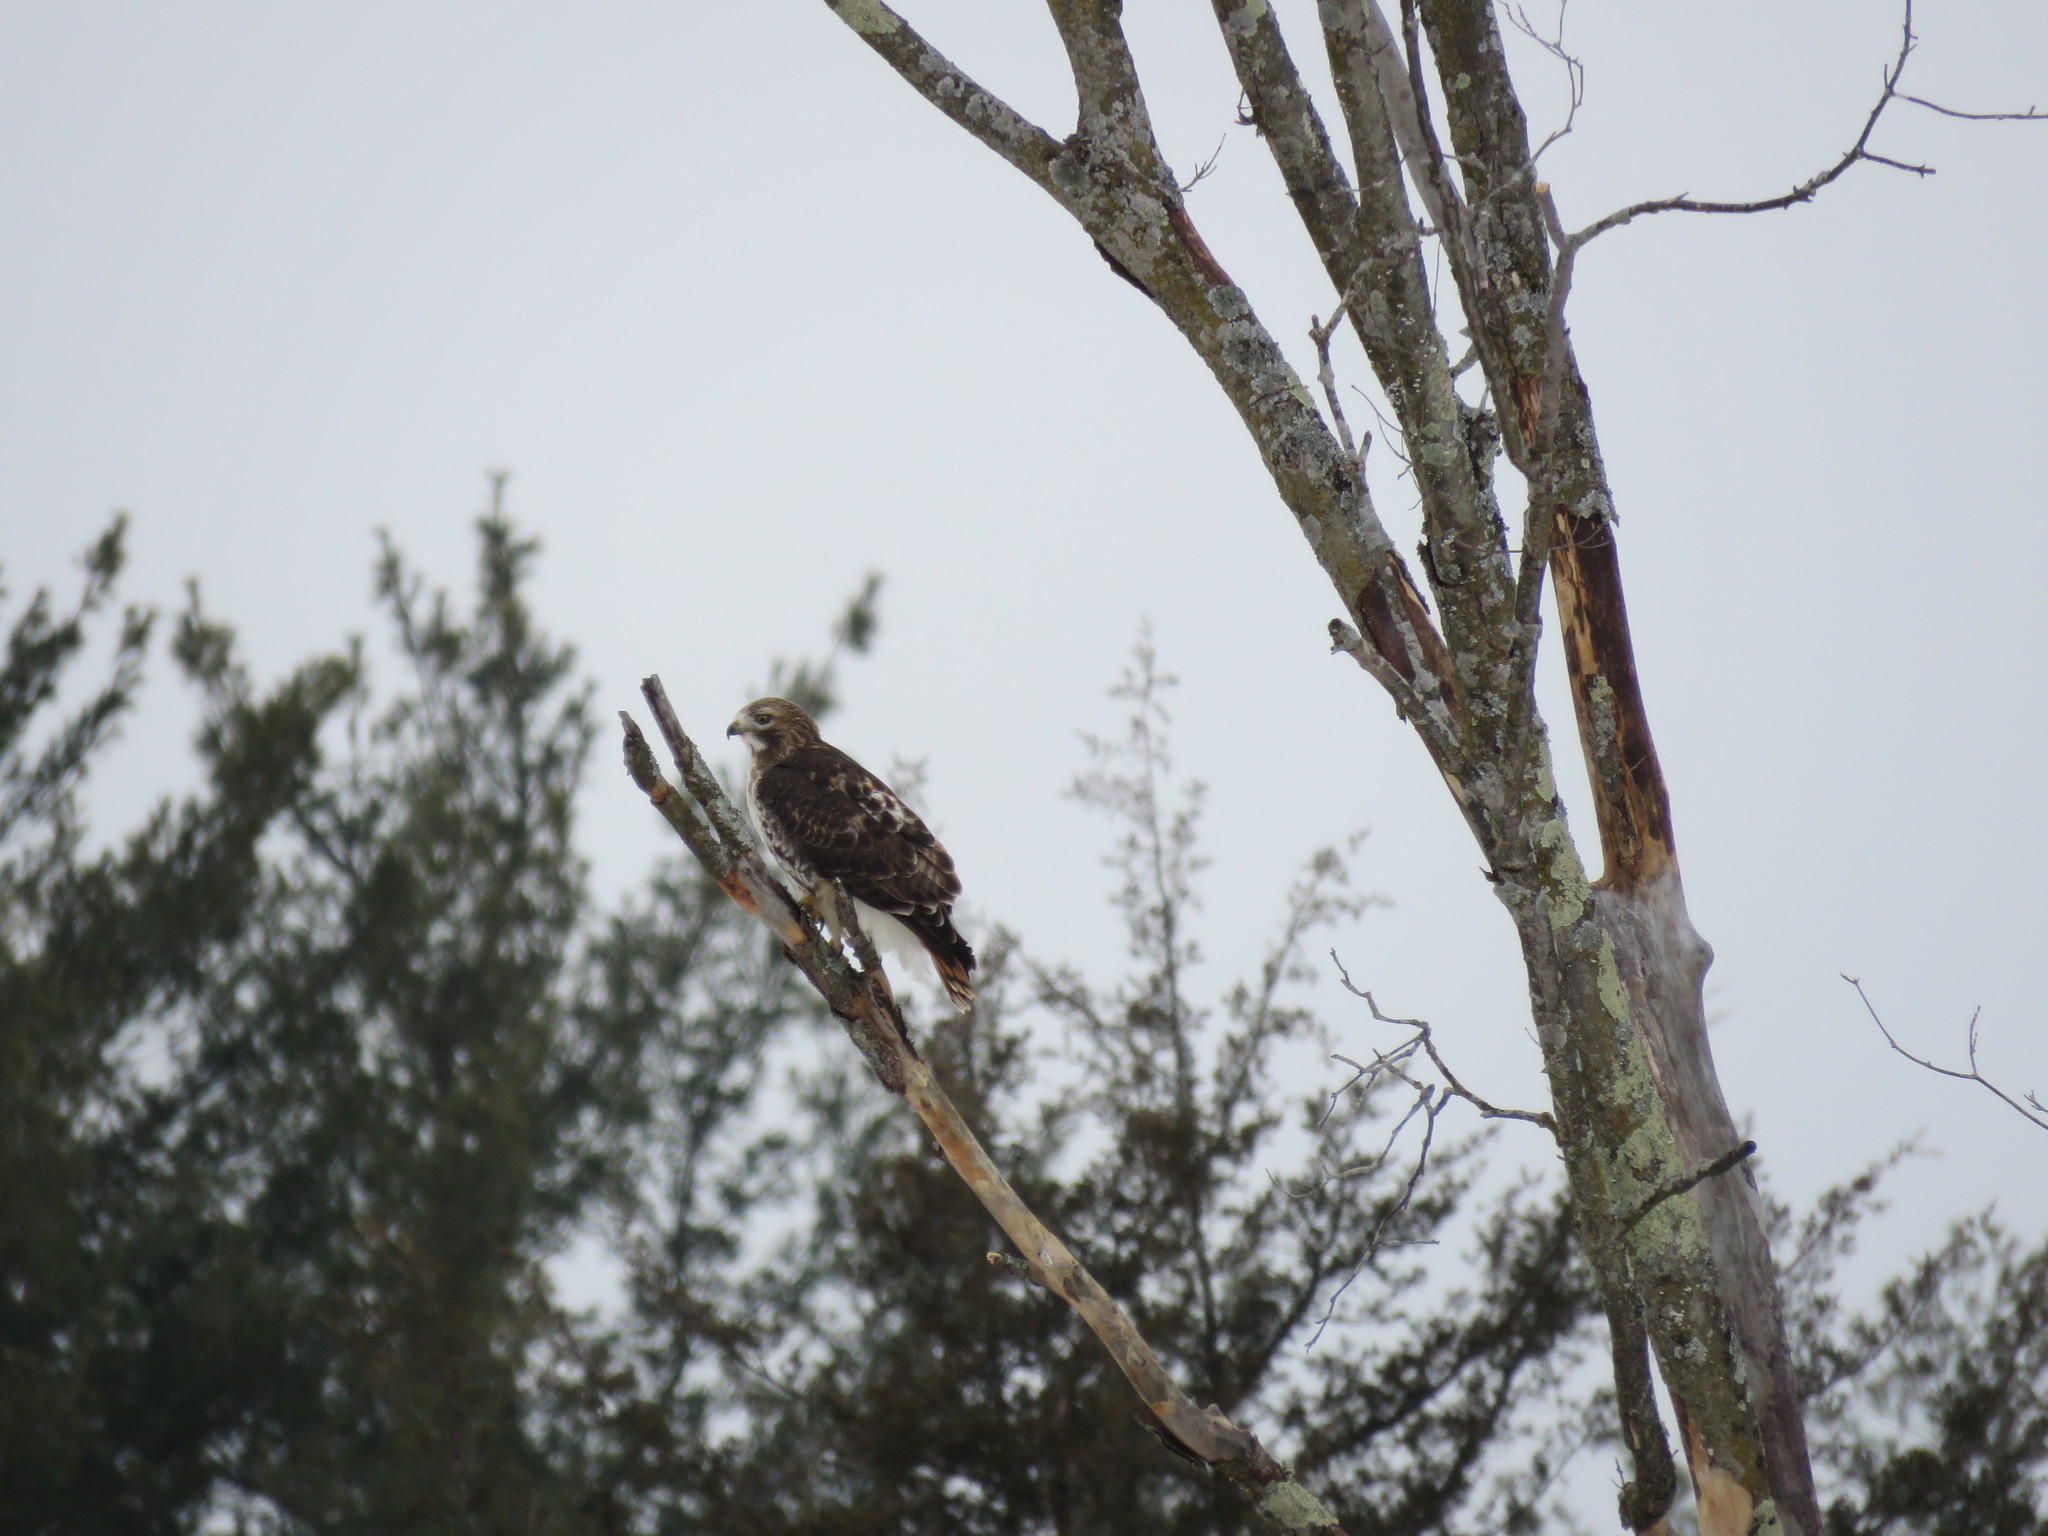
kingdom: Animalia
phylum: Chordata
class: Aves
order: Accipitriformes
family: Accipitridae
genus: Buteo
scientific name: Buteo jamaicensis
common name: Red-tailed hawk
